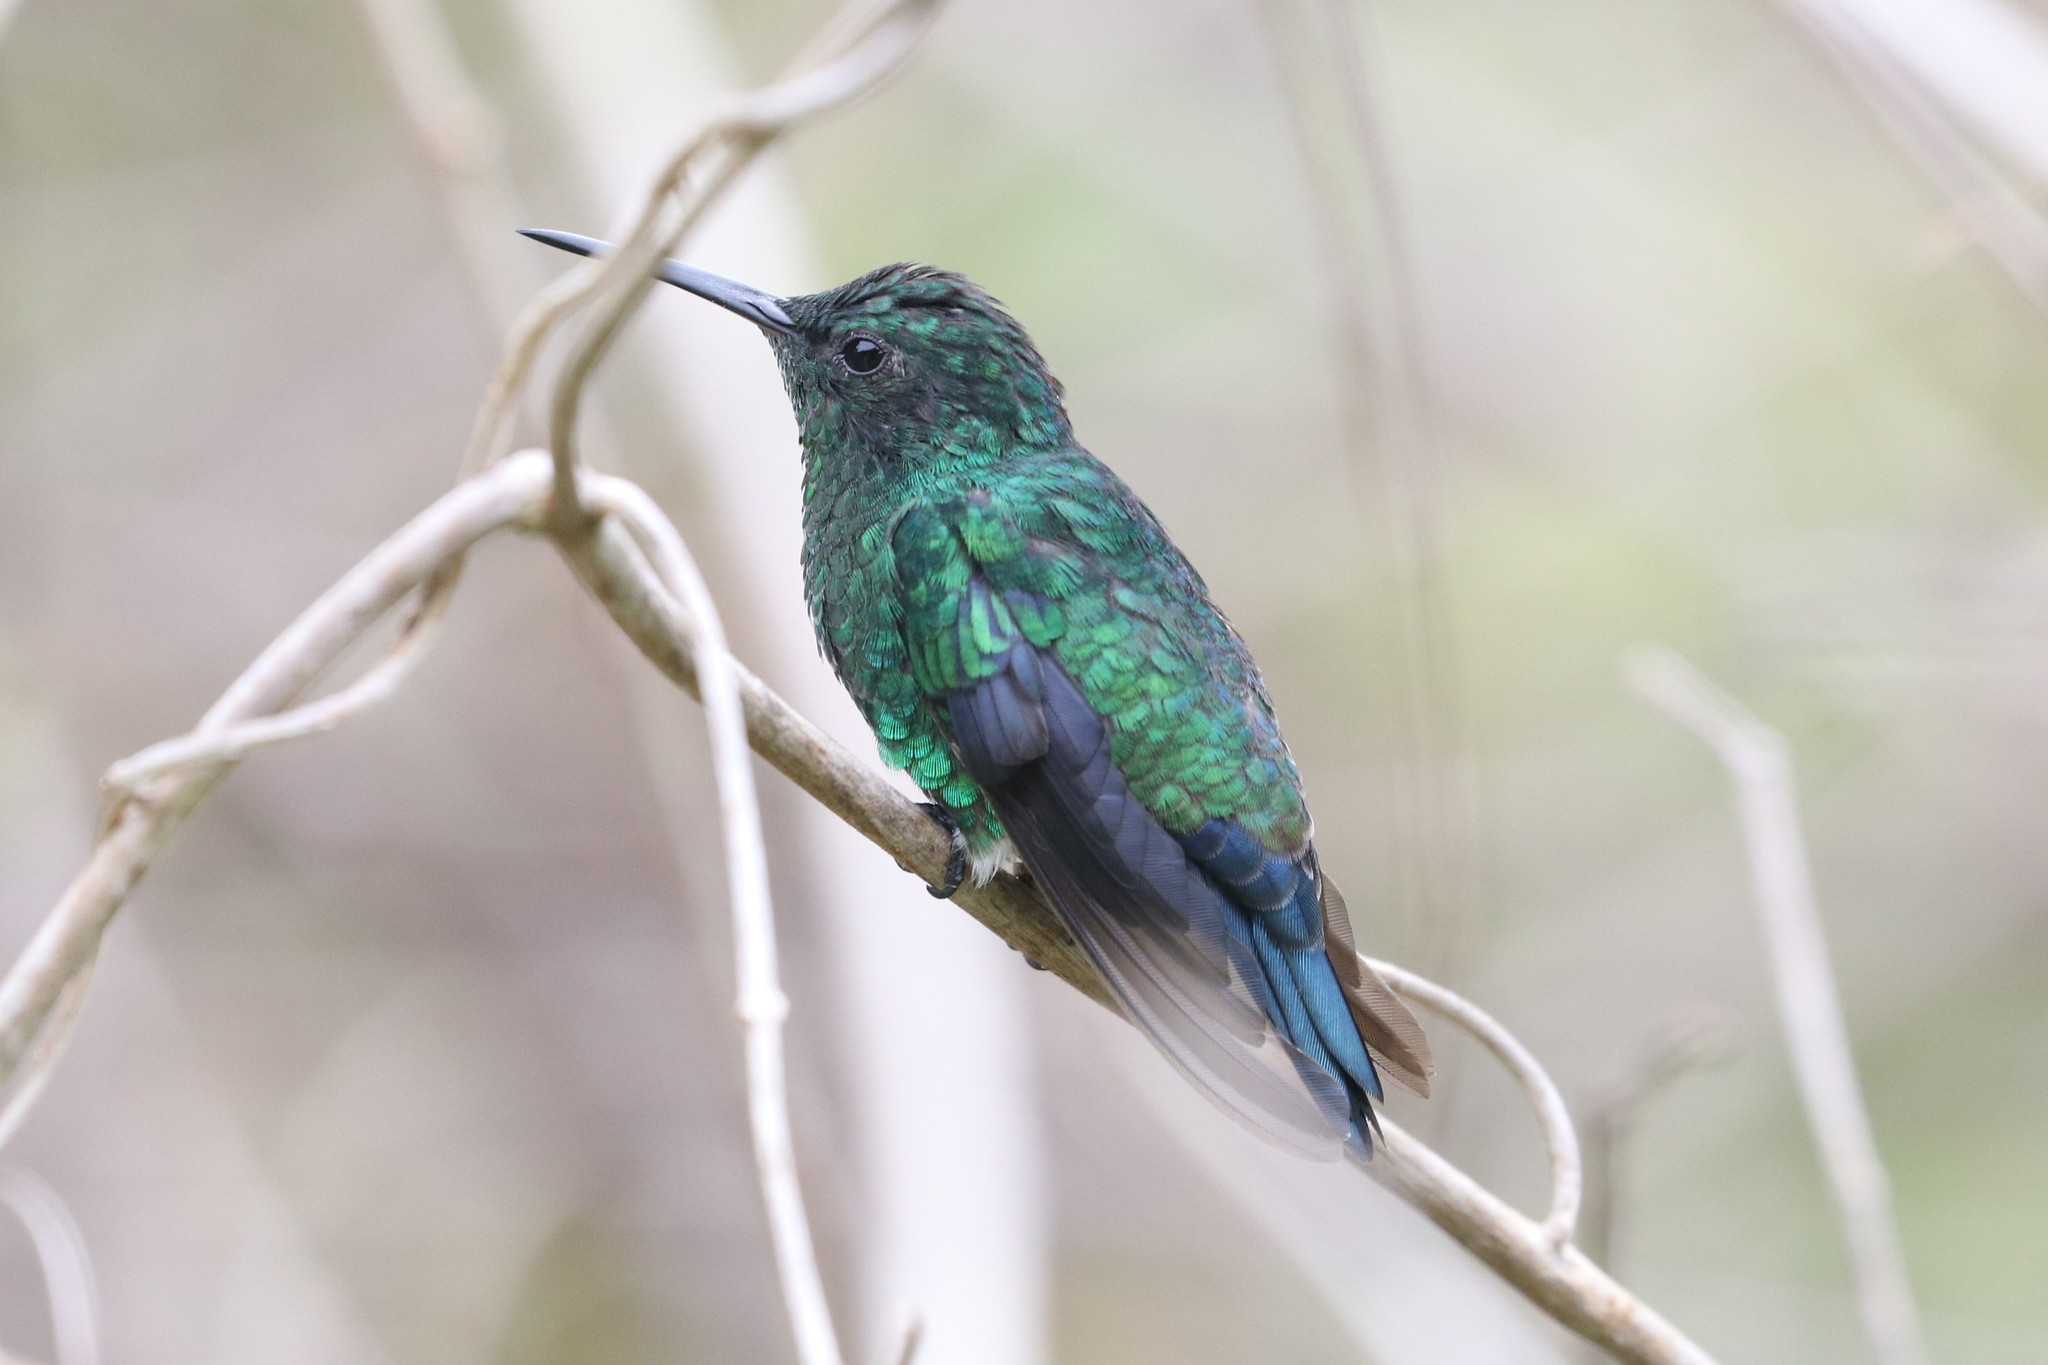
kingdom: Animalia
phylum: Chordata
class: Aves
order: Apodiformes
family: Trochilidae
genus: Saucerottia
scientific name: Saucerottia saucerottei
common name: Steely-vented hummingbird
